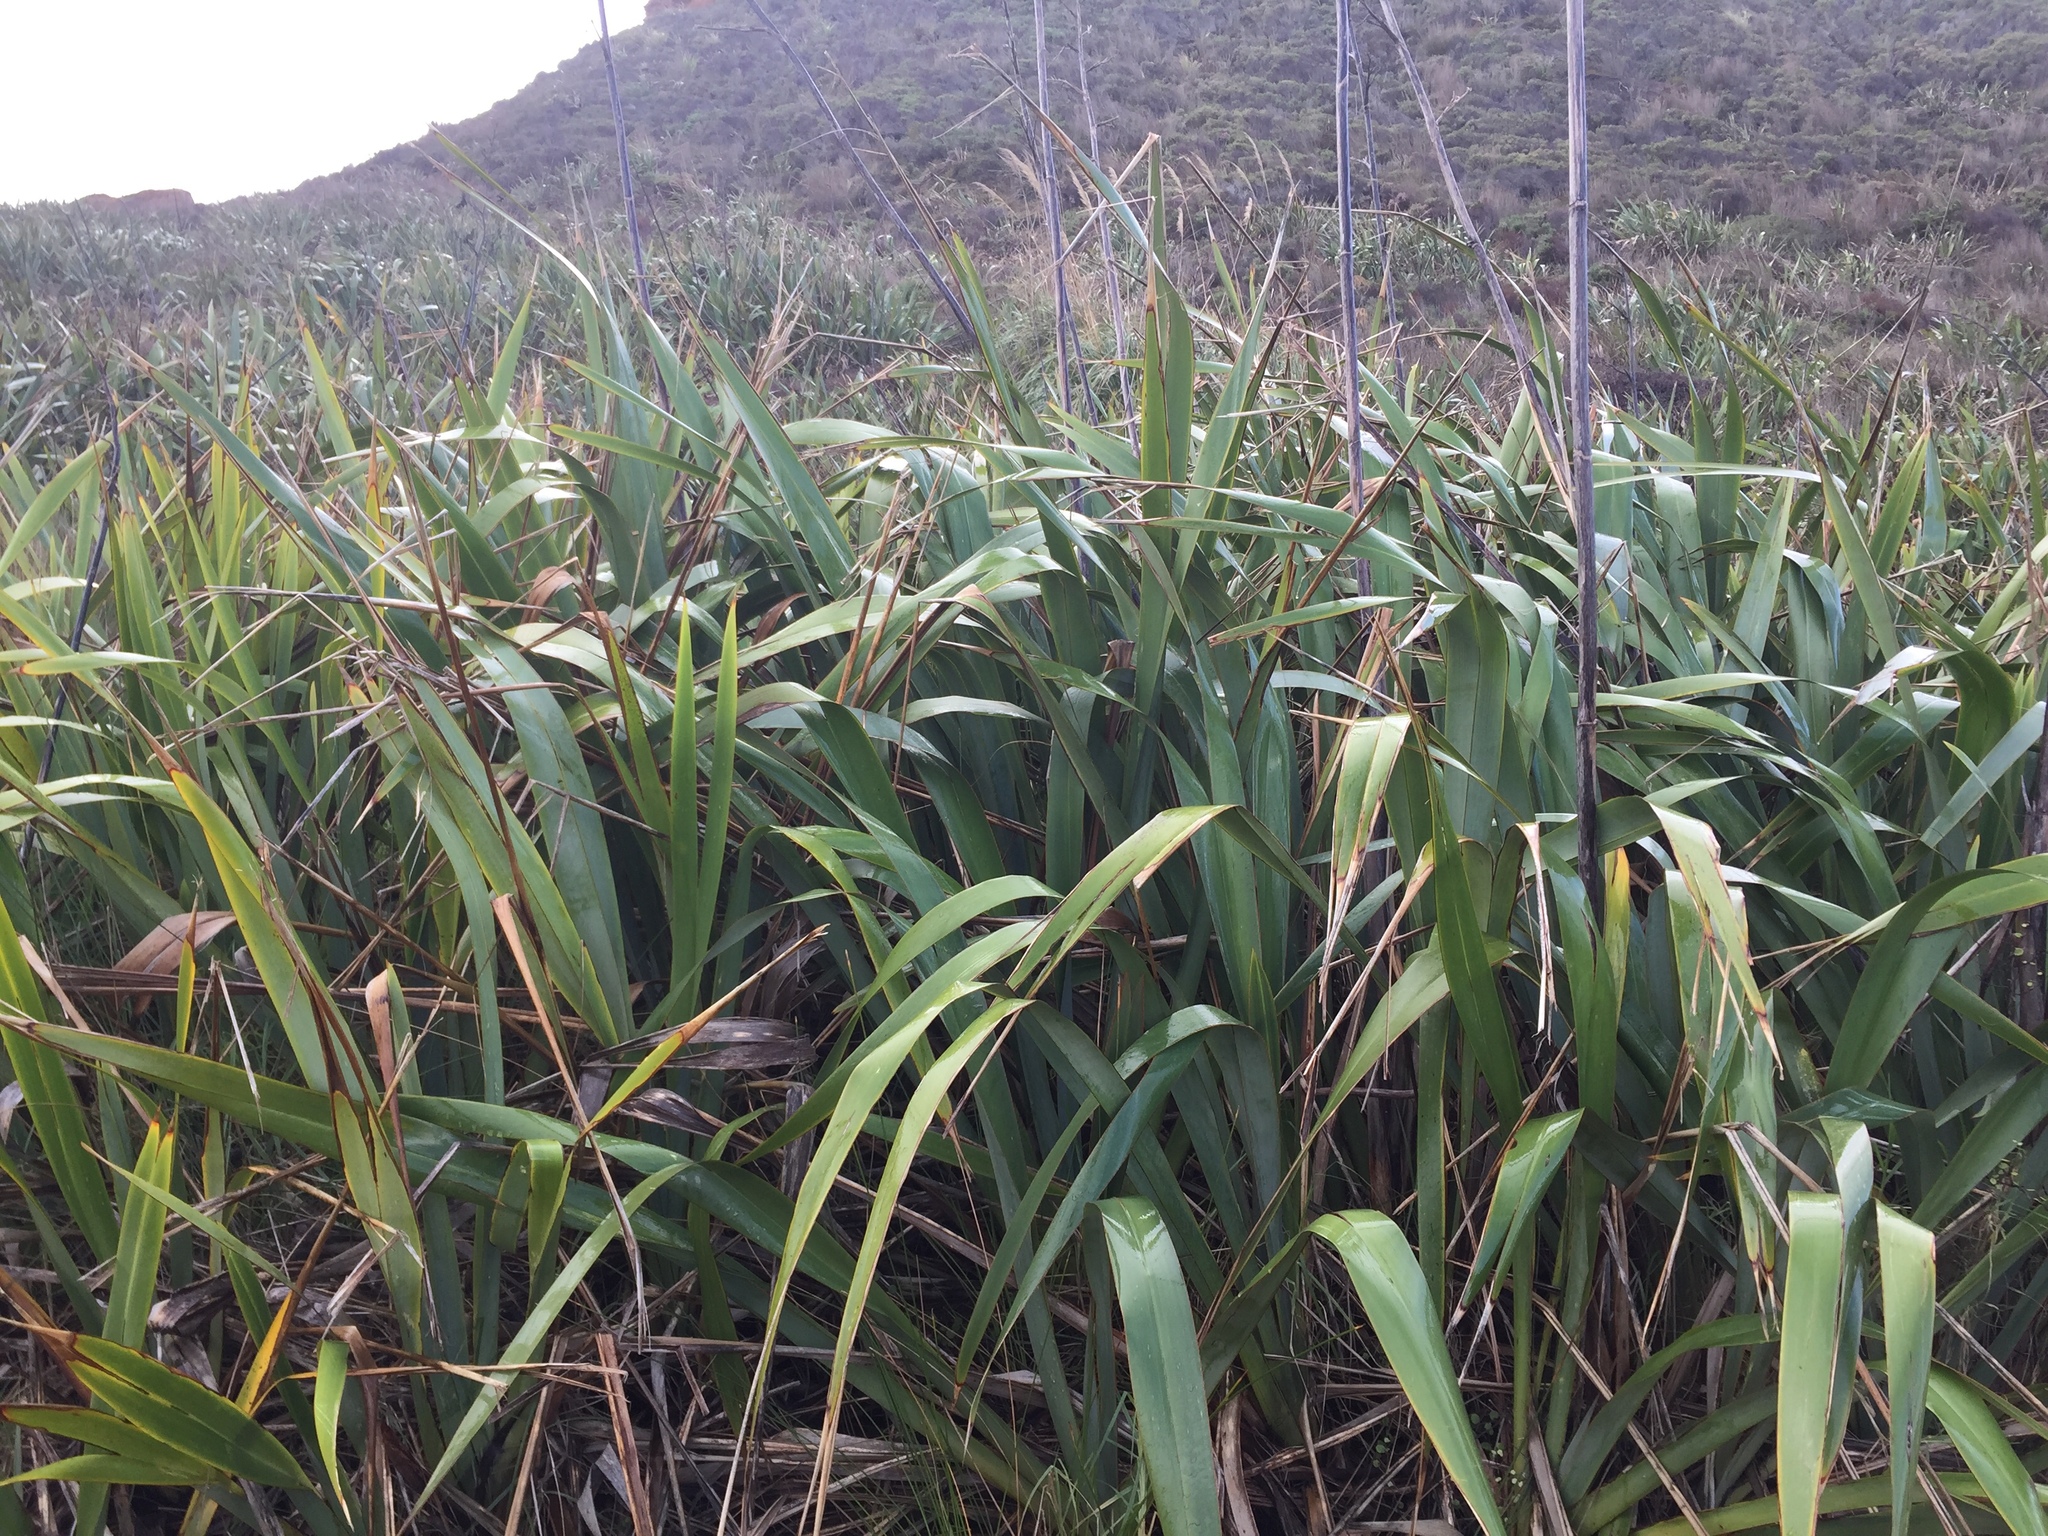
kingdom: Plantae
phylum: Tracheophyta
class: Liliopsida
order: Asparagales
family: Asphodelaceae
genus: Phormium
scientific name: Phormium tenax
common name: New zealand flax
